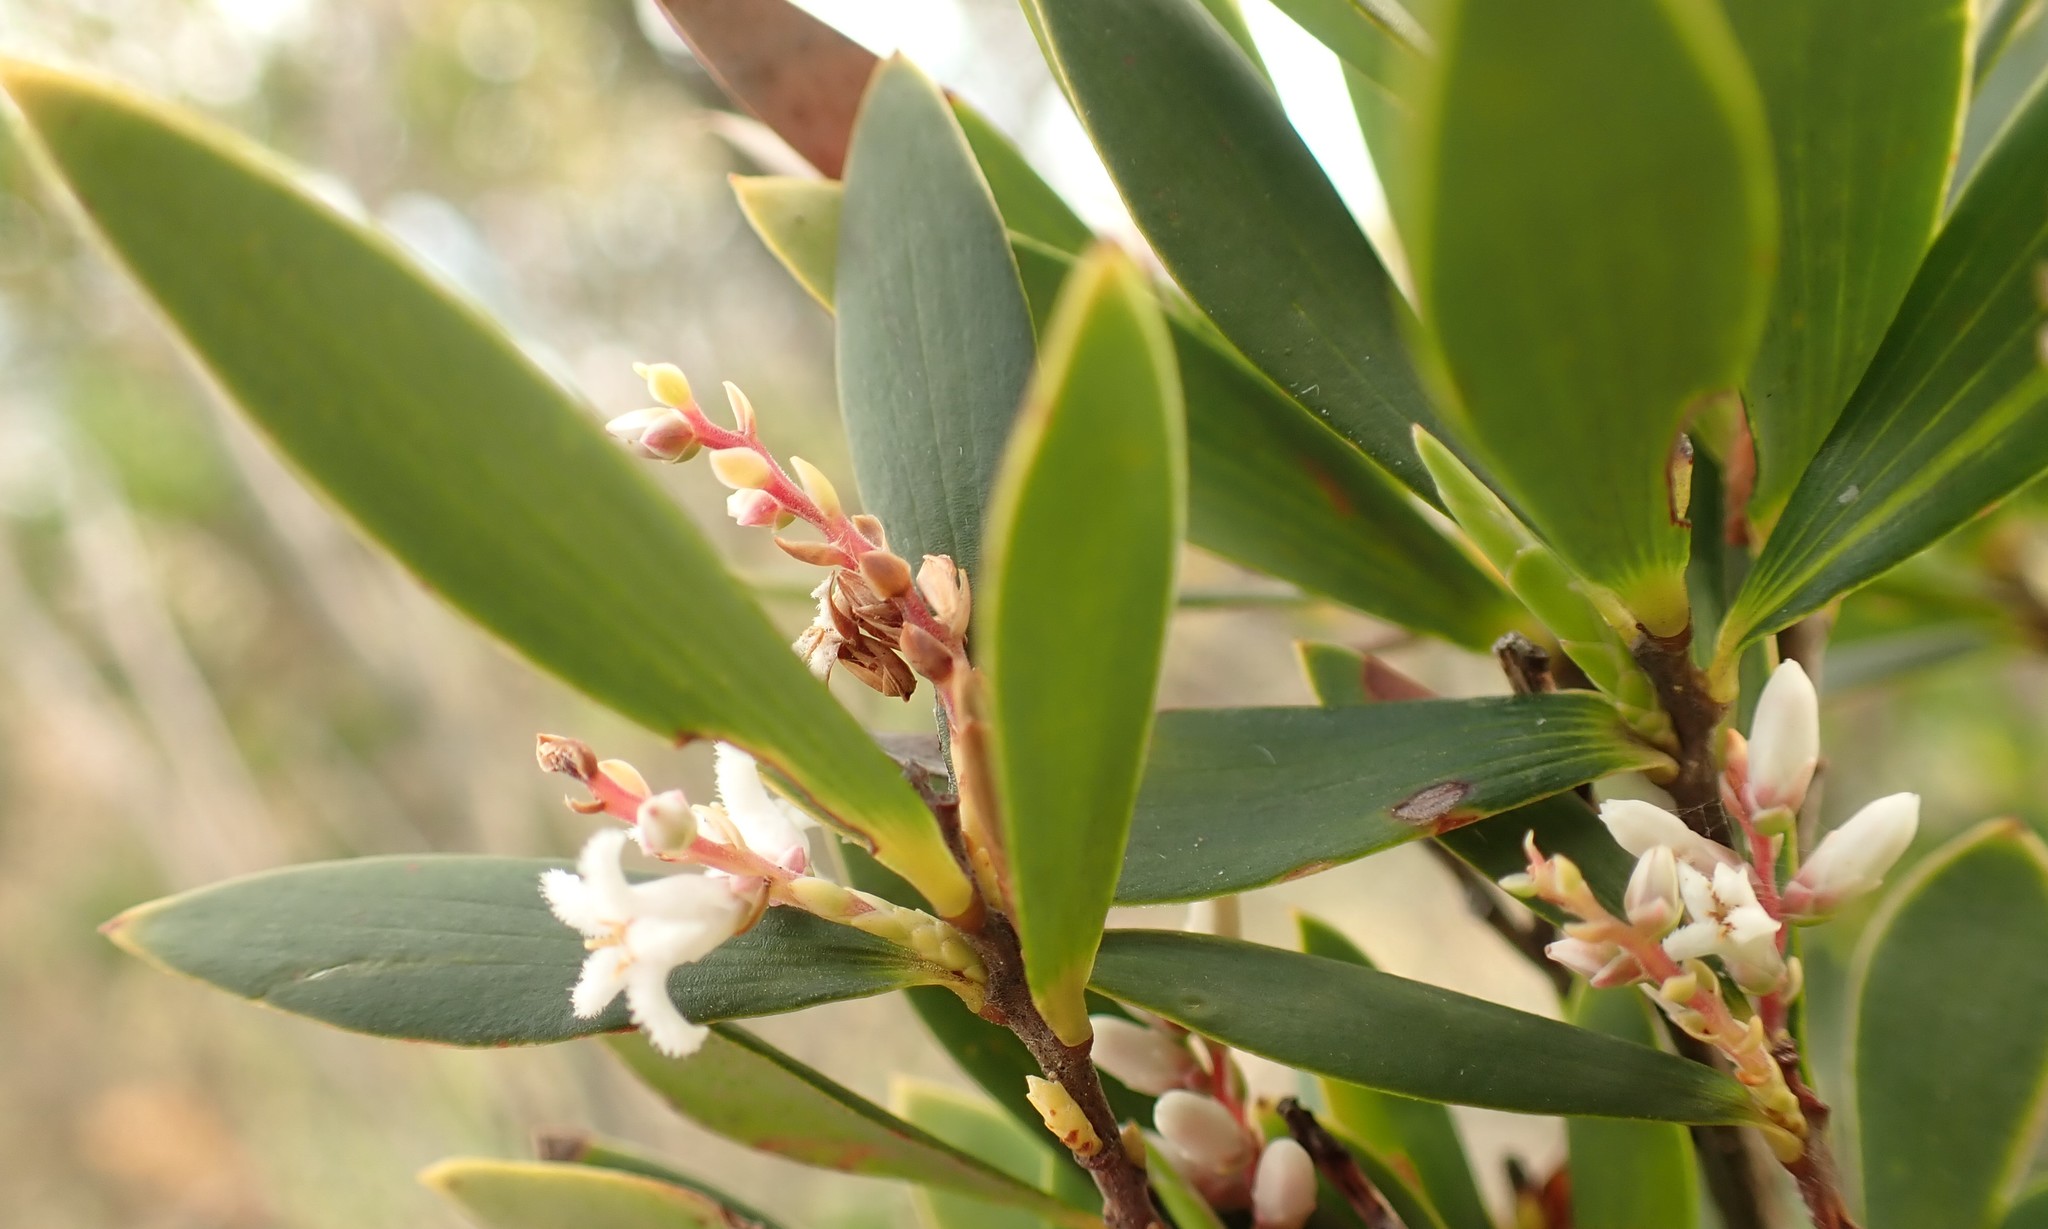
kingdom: Plantae
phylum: Tracheophyta
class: Magnoliopsida
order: Ericales
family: Ericaceae
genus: Leptecophylla
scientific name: Leptecophylla parvifolia
